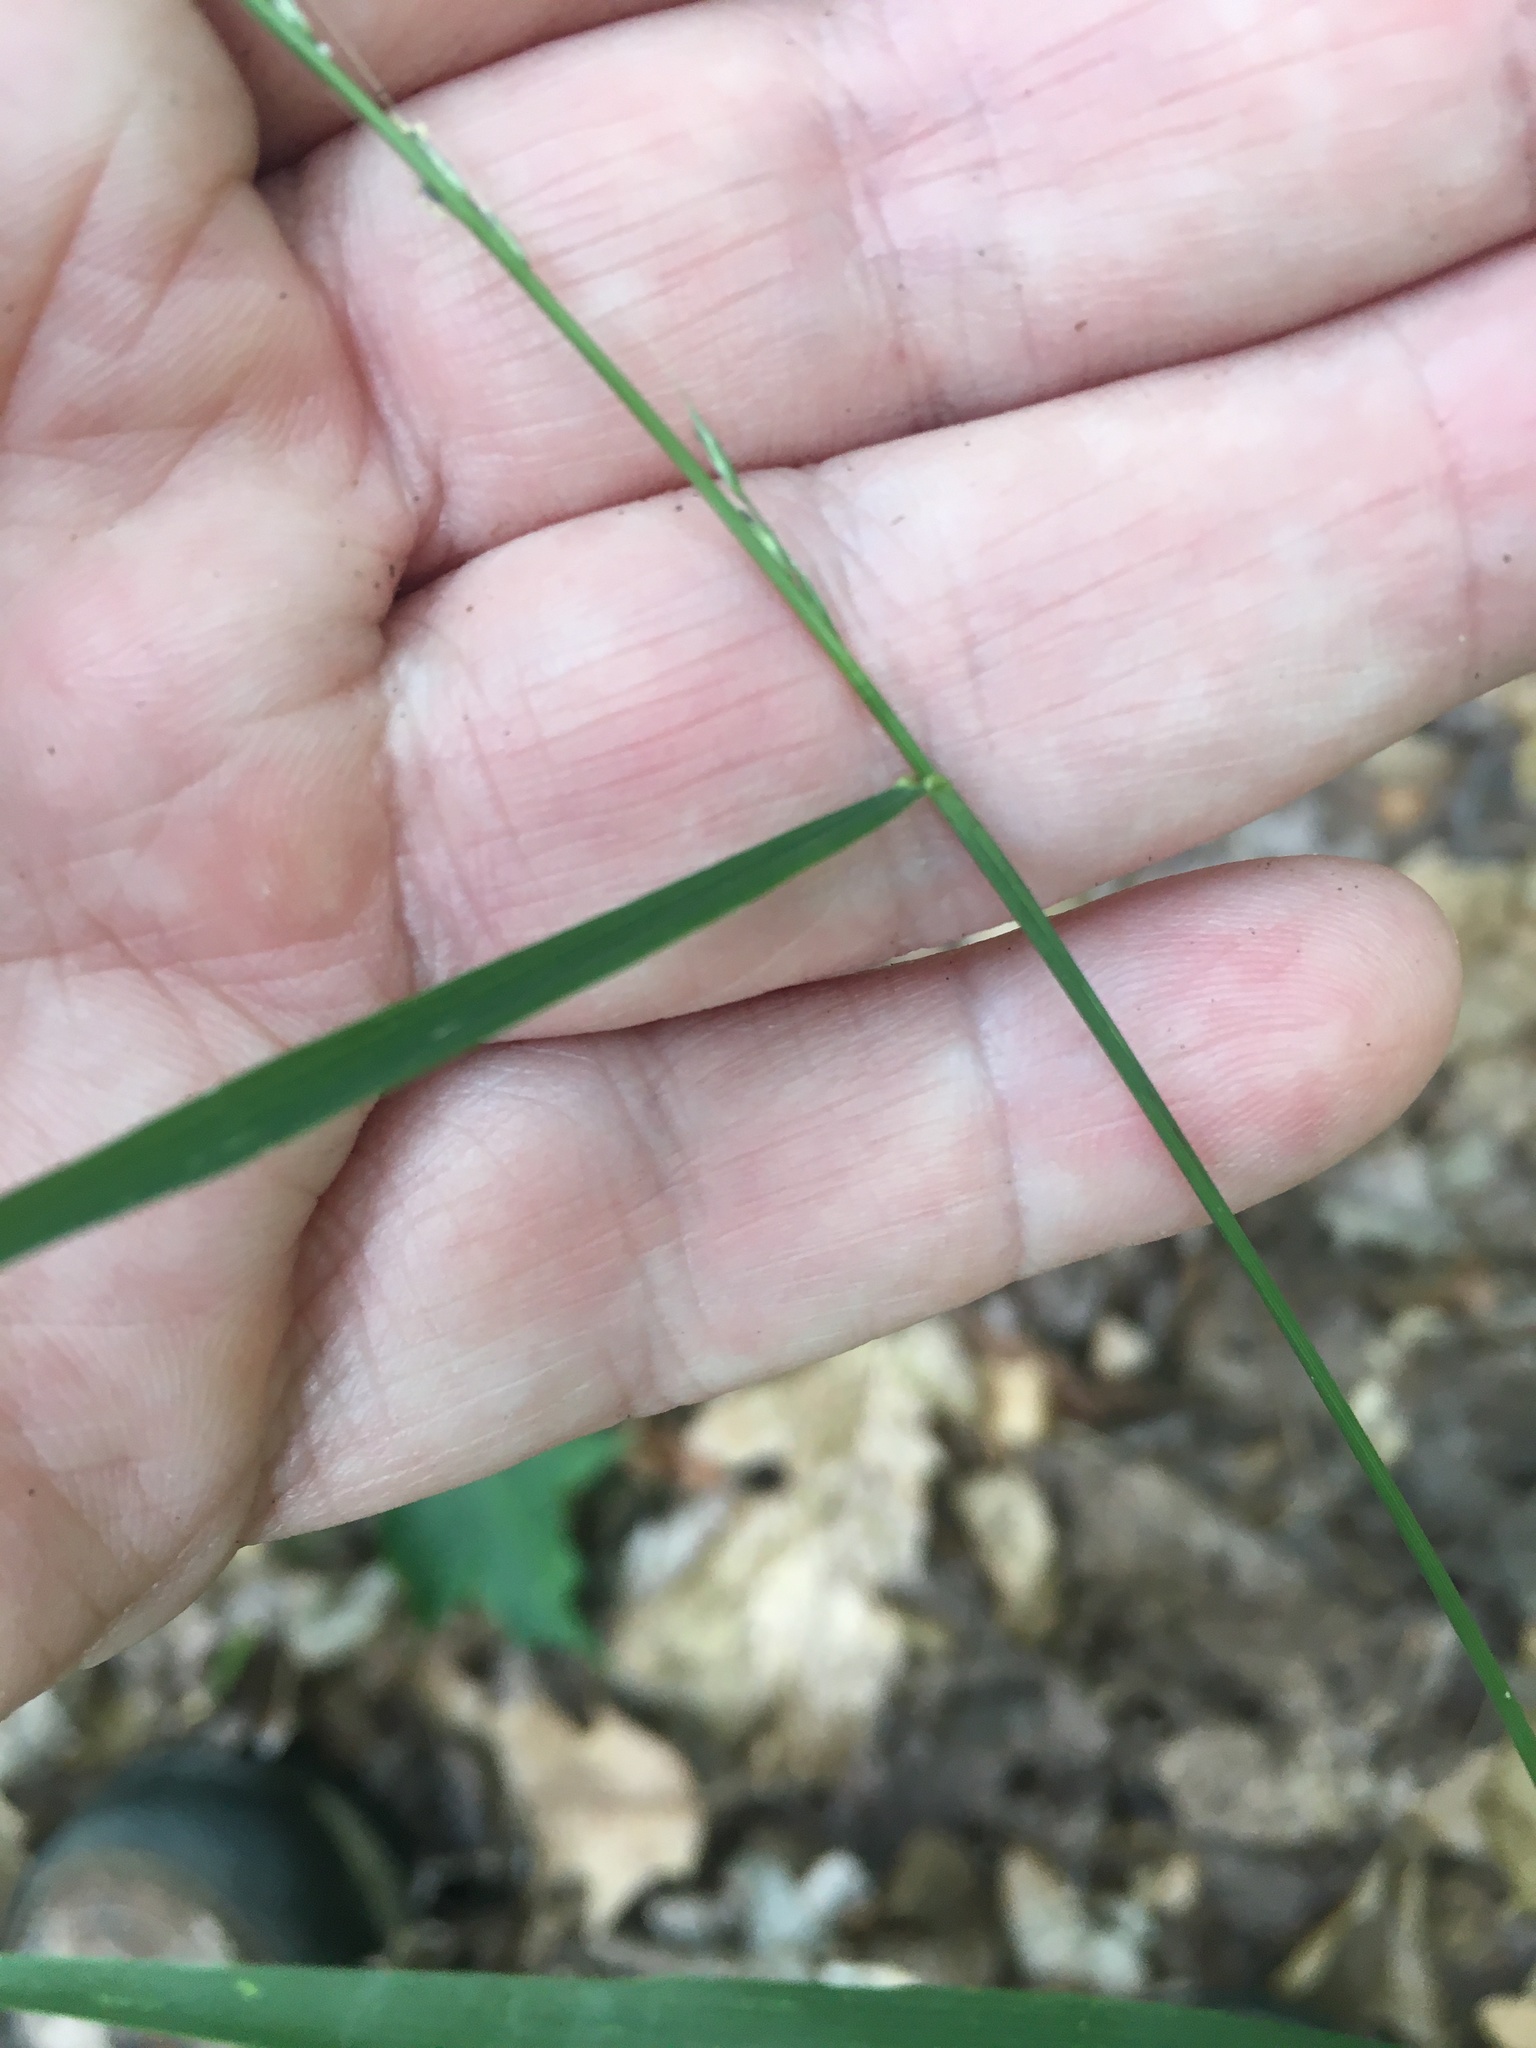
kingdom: Plantae
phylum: Tracheophyta
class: Liliopsida
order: Poales
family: Poaceae
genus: Muhlenbergia
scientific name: Muhlenbergia tenuiflora
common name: Slender muhly
